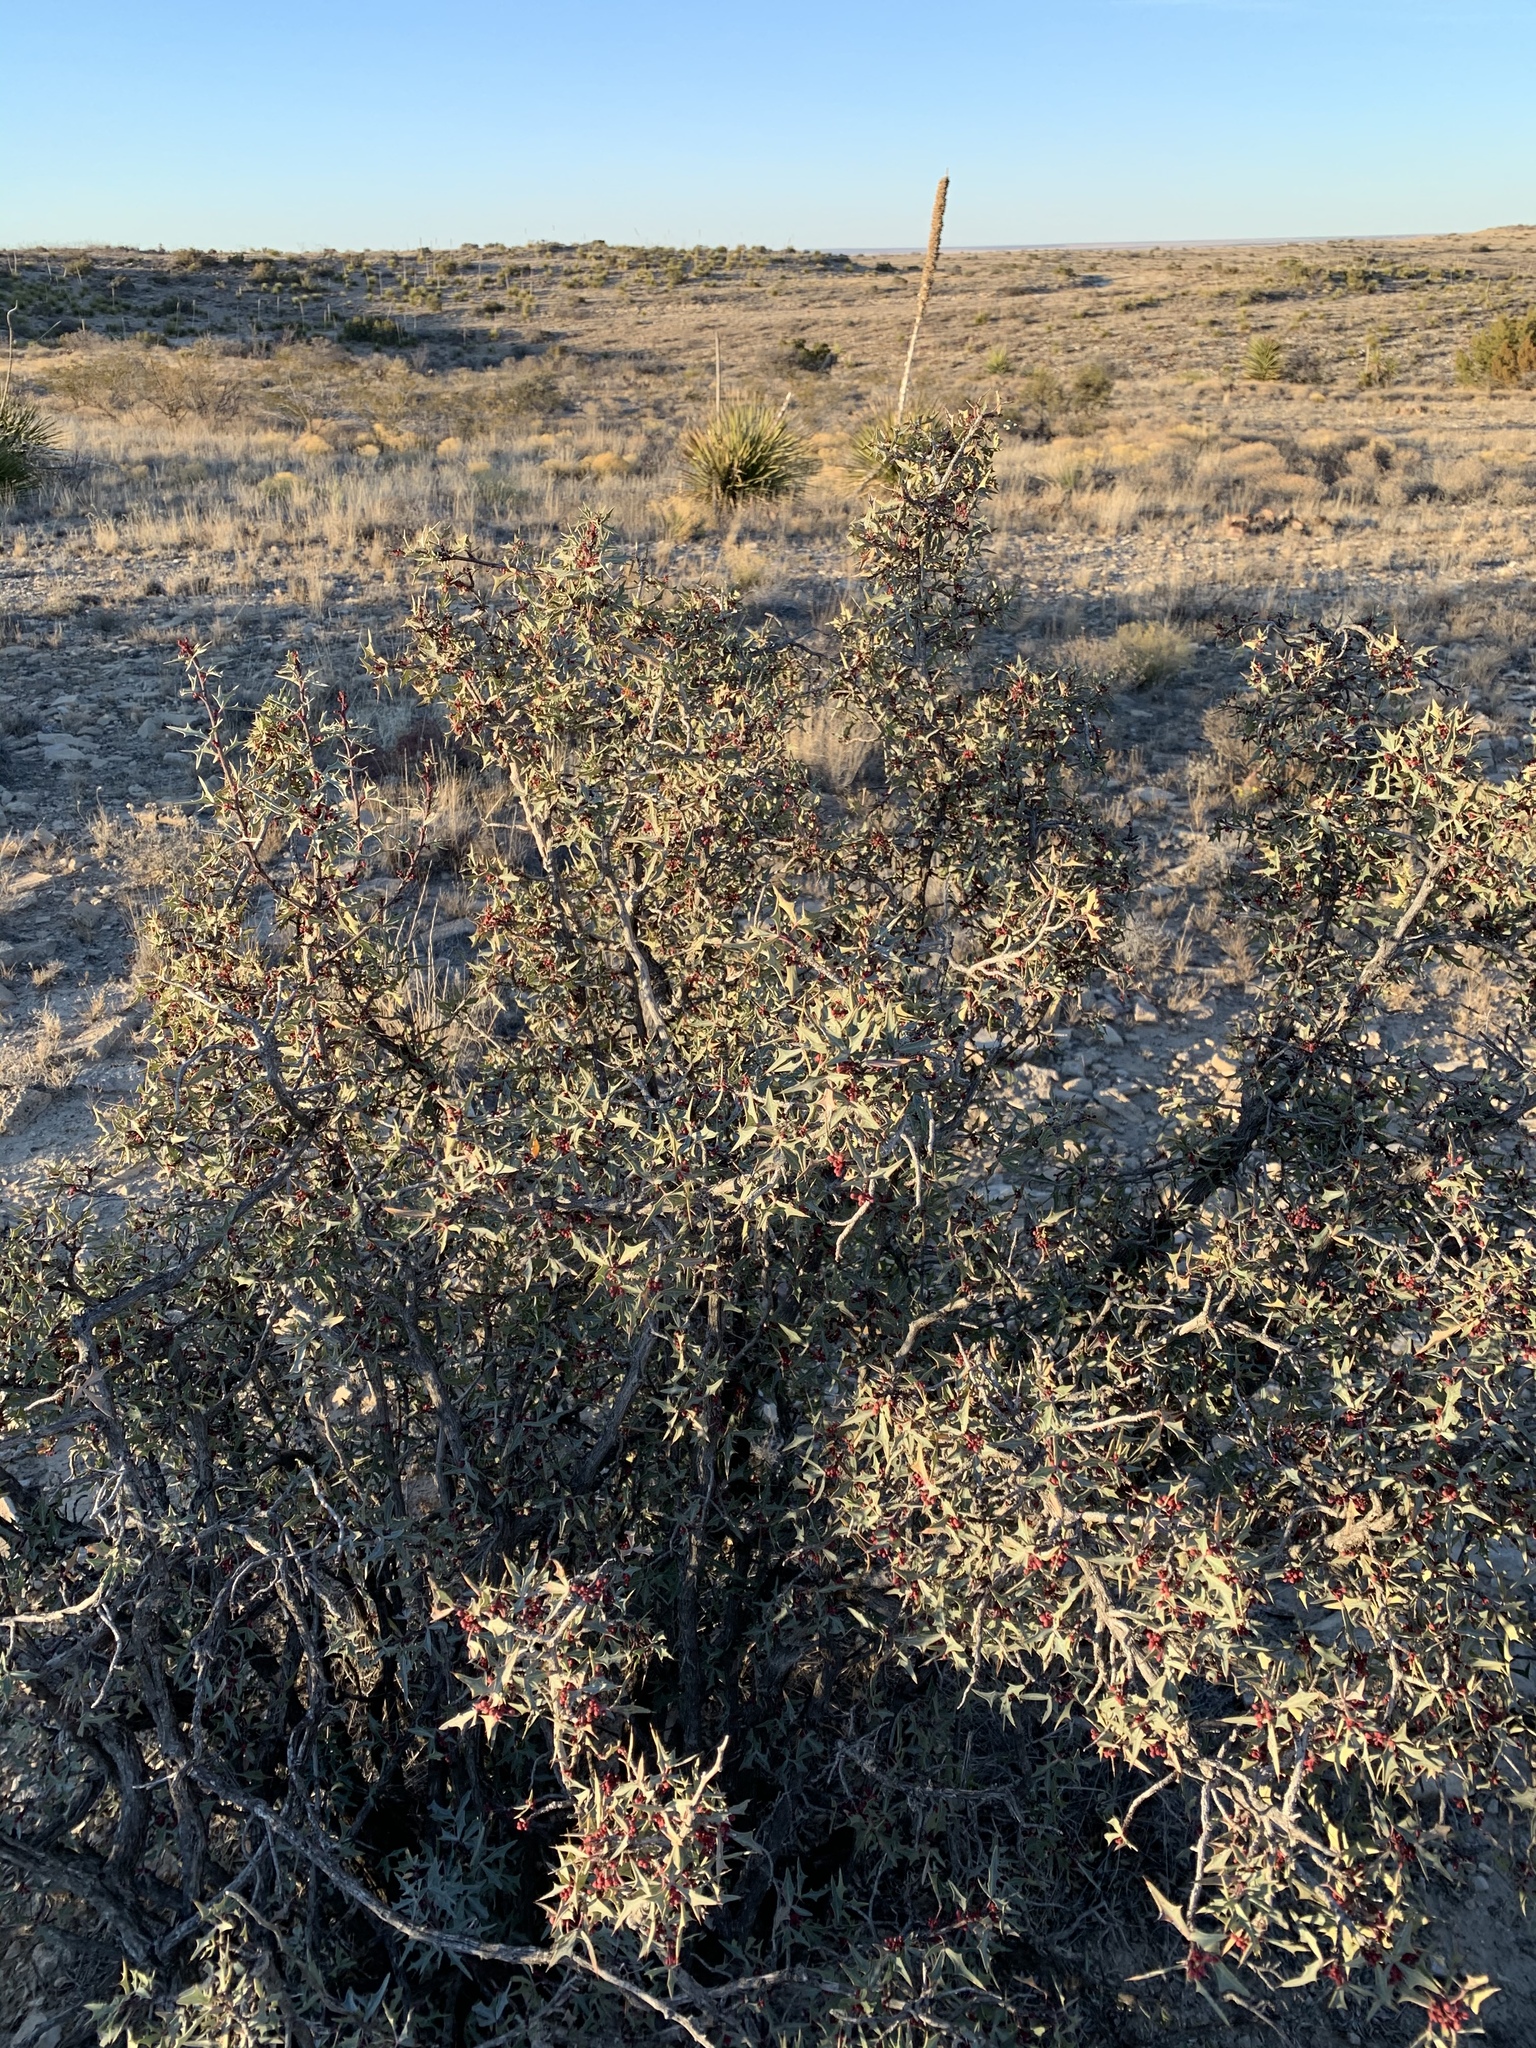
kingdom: Plantae
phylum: Tracheophyta
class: Magnoliopsida
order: Ranunculales
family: Berberidaceae
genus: Alloberberis
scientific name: Alloberberis trifoliolata
